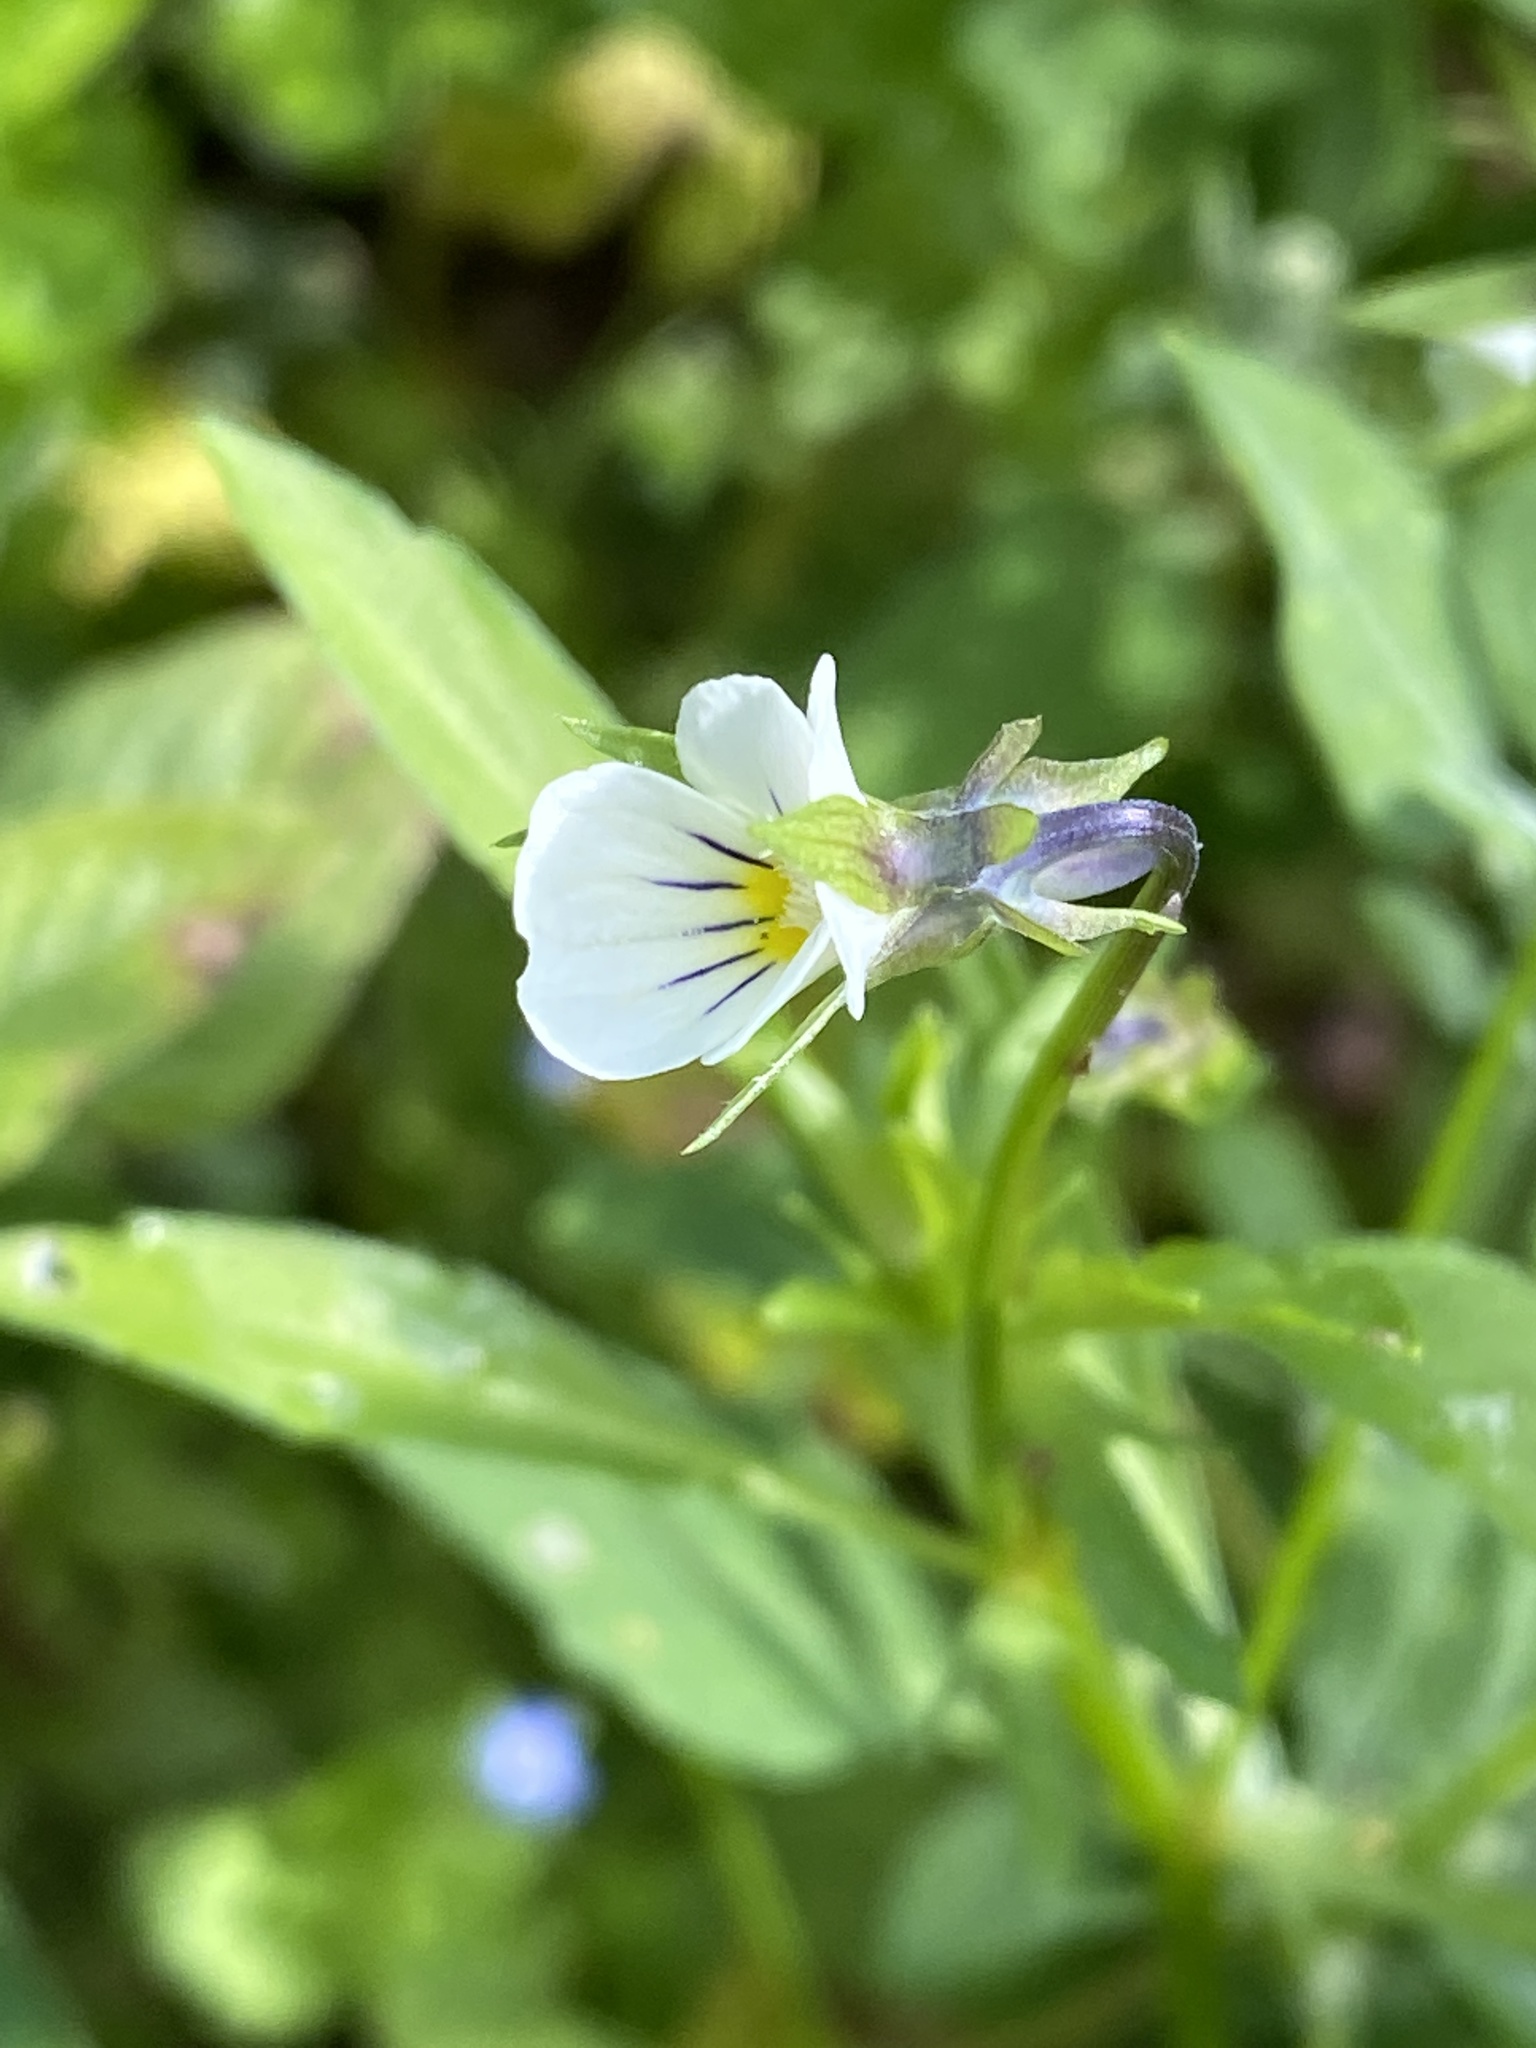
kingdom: Plantae
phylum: Tracheophyta
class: Magnoliopsida
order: Malpighiales
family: Violaceae
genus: Viola
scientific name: Viola arvensis
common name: Field pansy
